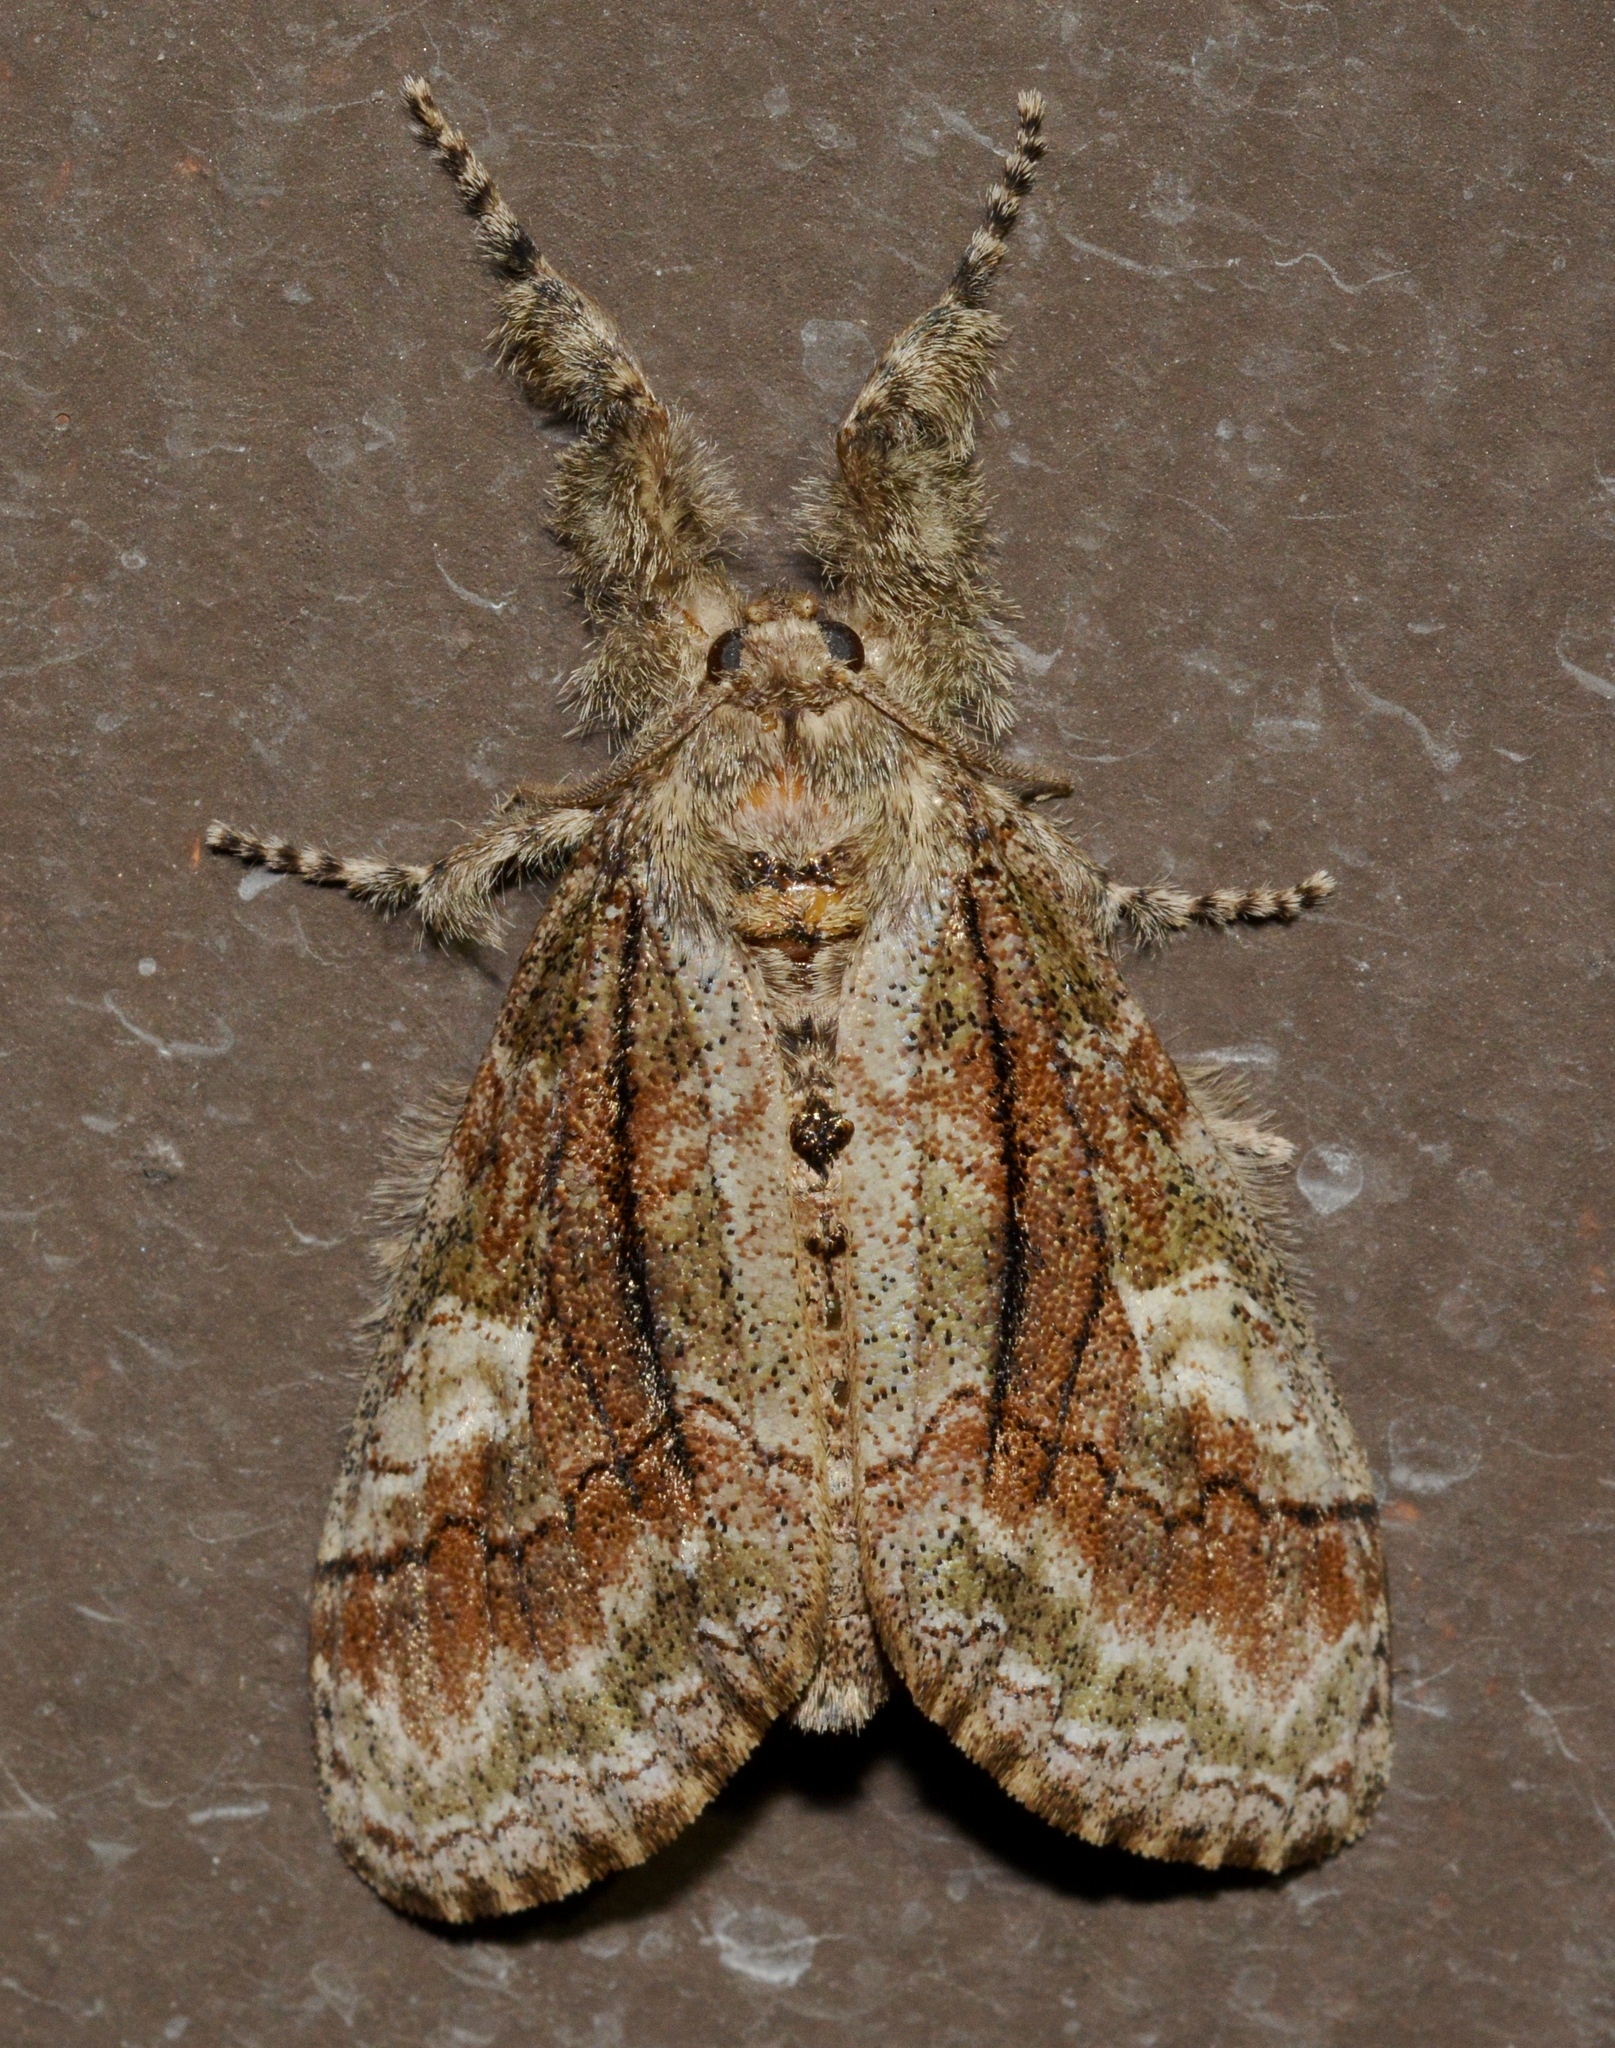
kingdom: Animalia
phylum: Arthropoda
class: Insecta
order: Lepidoptera
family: Erebidae
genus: Dasychira
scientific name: Dasychira obliquata
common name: Streaked tussock moth
